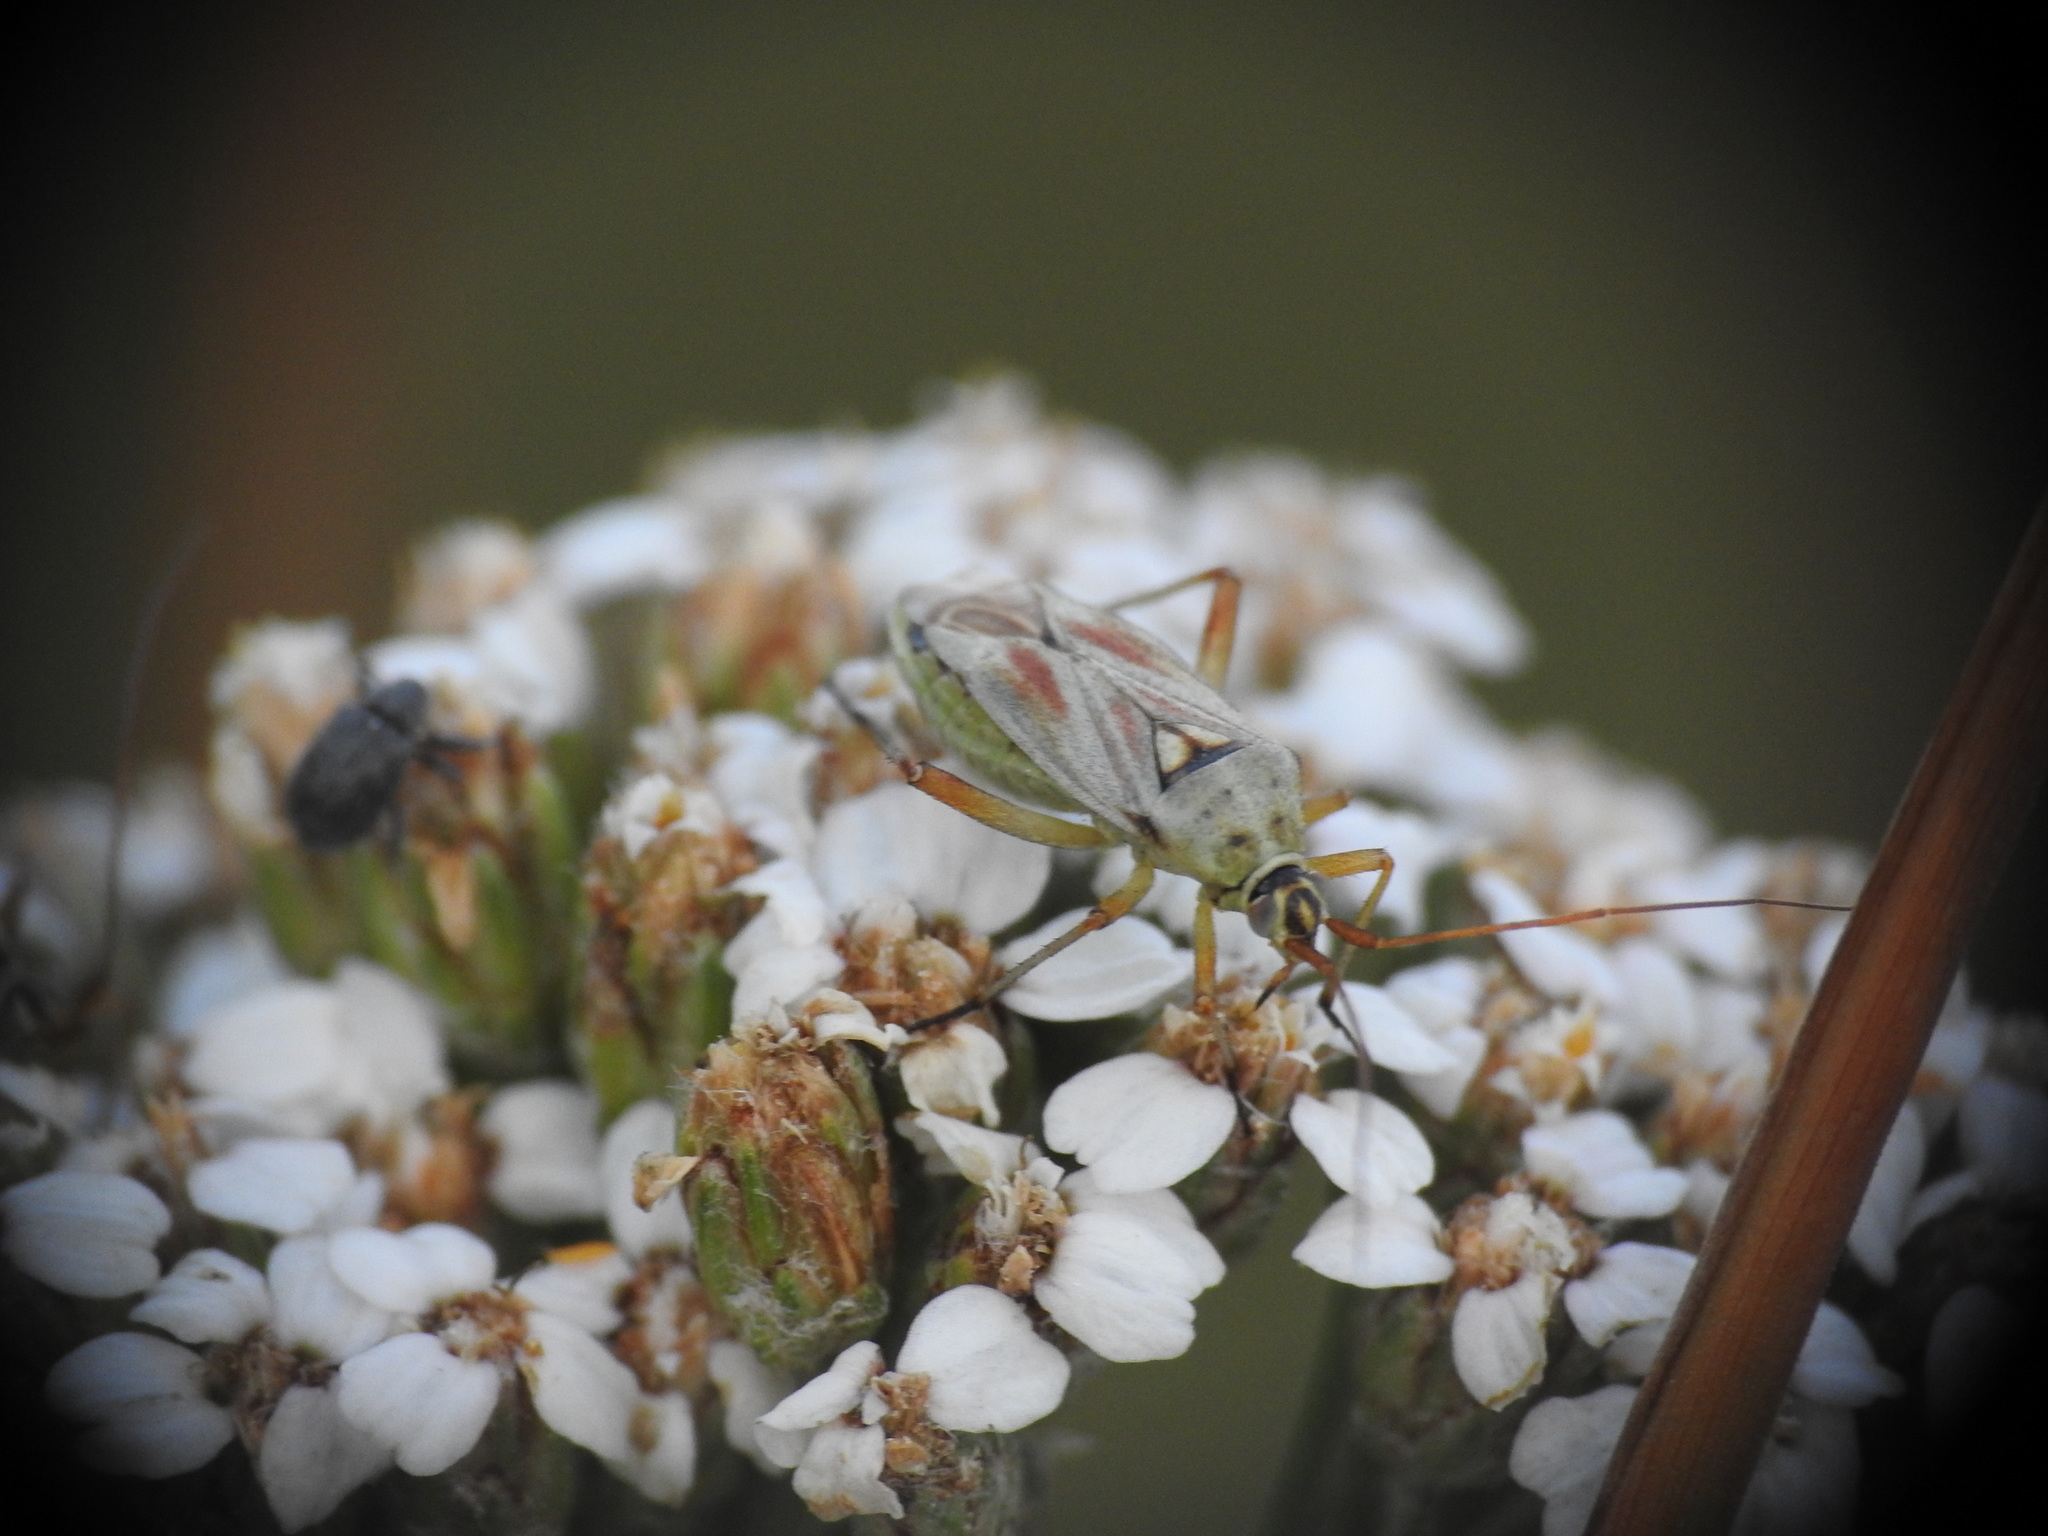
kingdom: Animalia
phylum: Arthropoda
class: Insecta
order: Hemiptera
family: Miridae
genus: Calocoris
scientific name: Calocoris roseomaculatus
